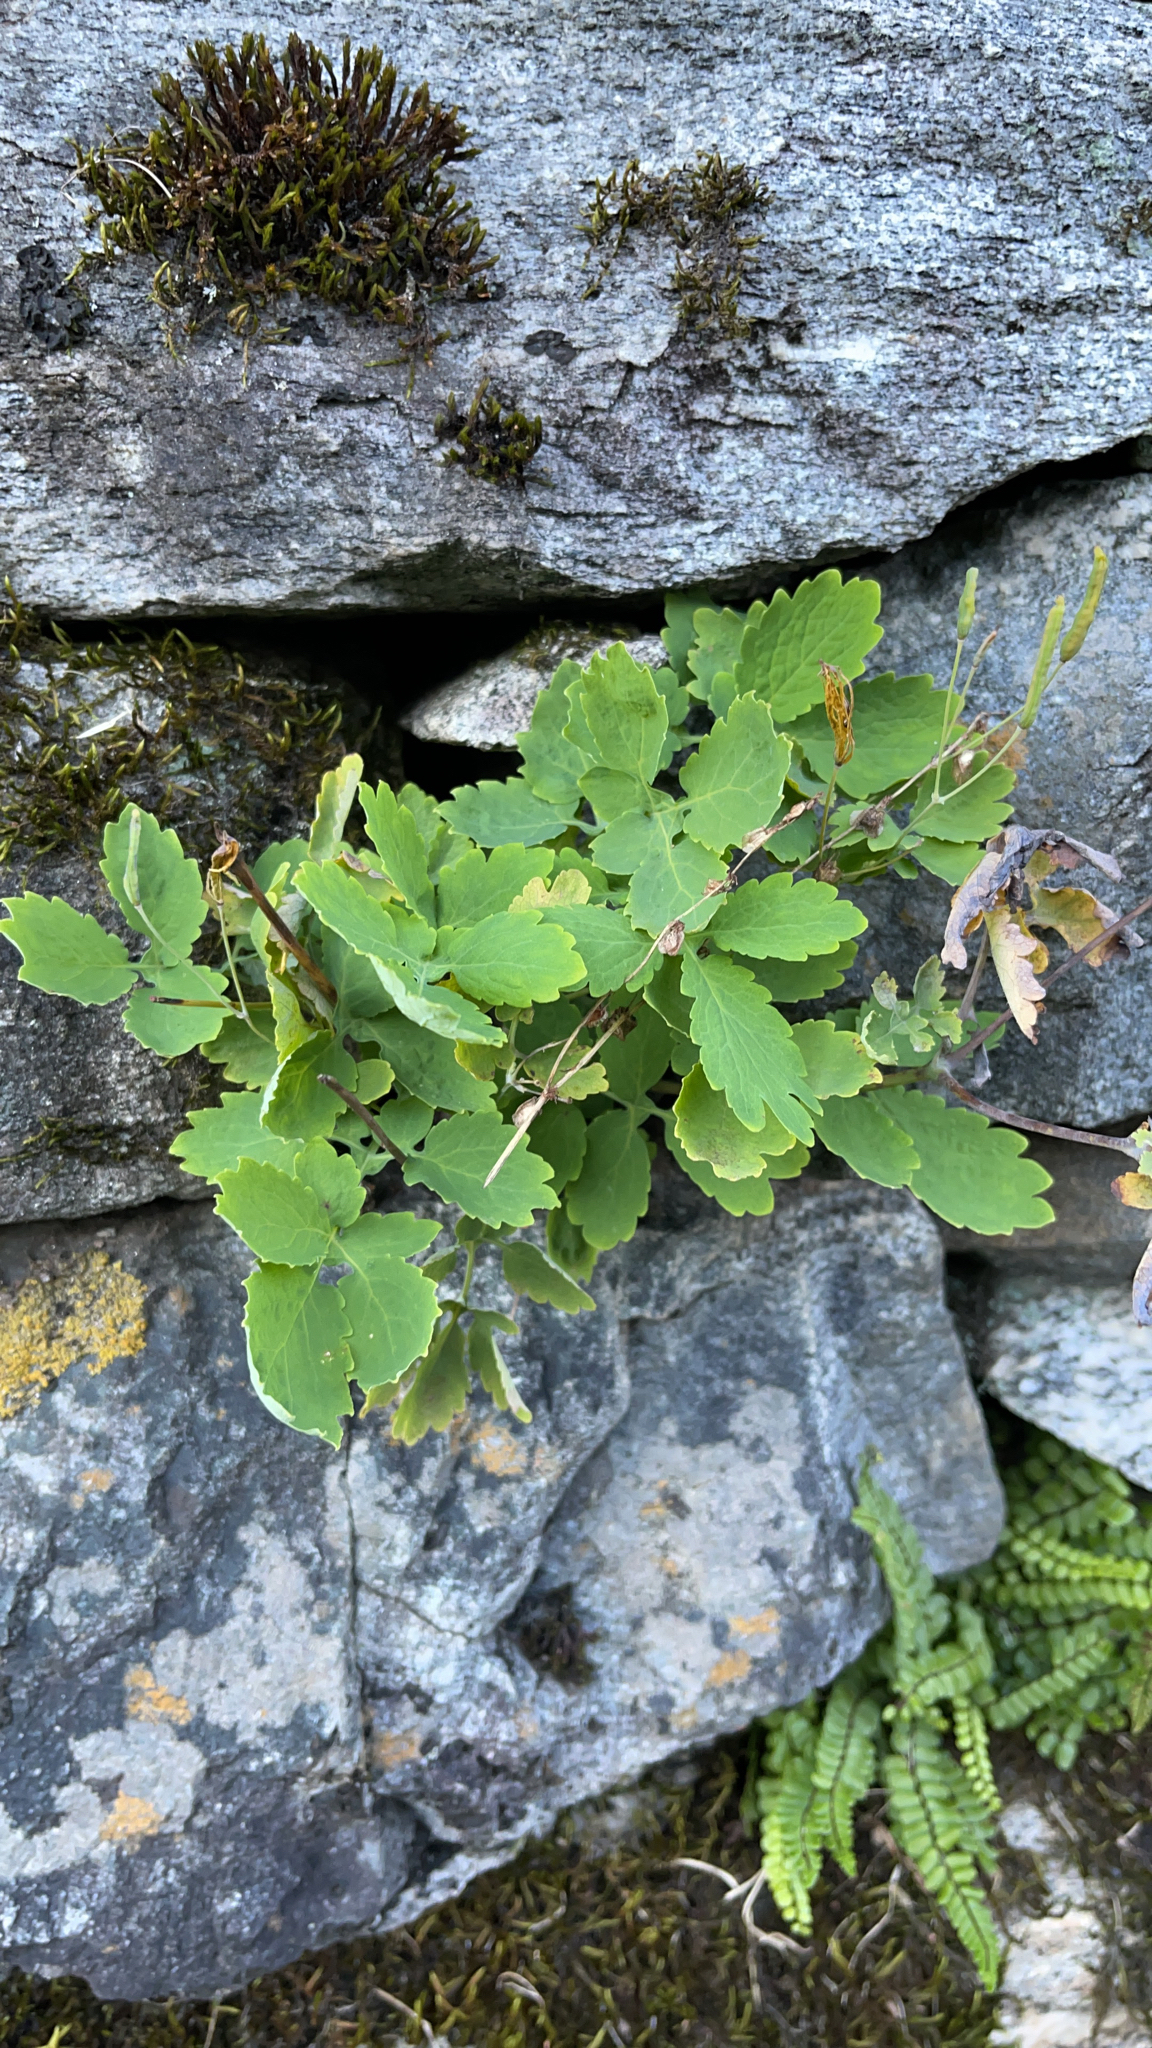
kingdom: Plantae
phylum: Tracheophyta
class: Magnoliopsida
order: Ranunculales
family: Papaveraceae
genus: Chelidonium
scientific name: Chelidonium majus
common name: Greater celandine
